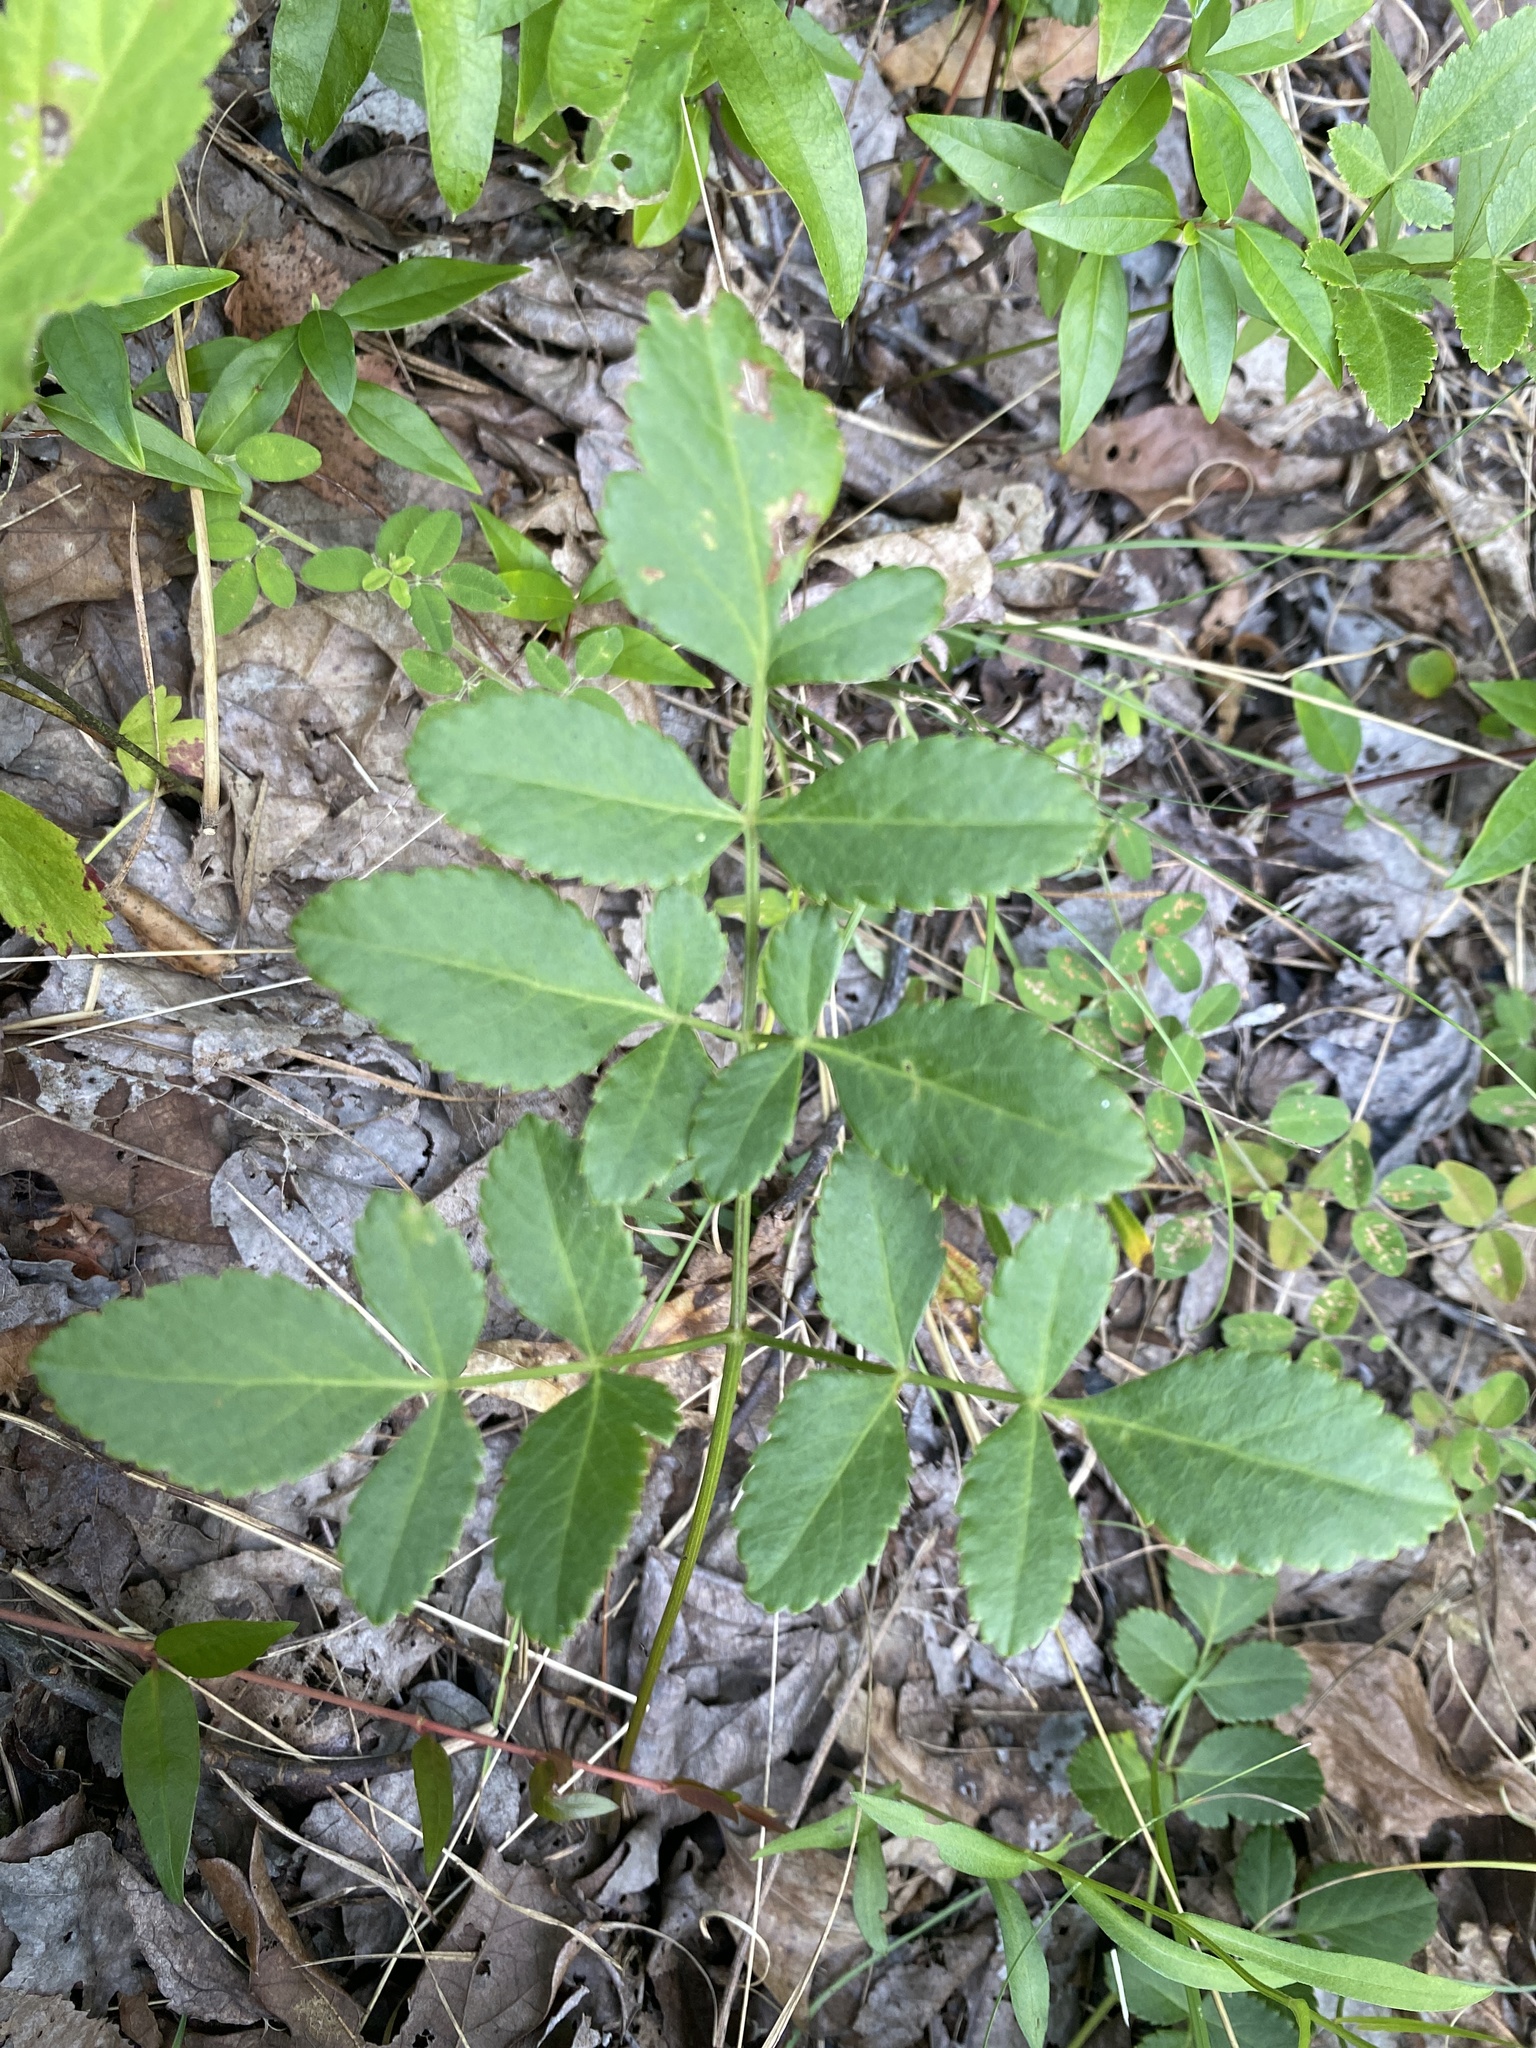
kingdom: Plantae
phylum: Tracheophyta
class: Magnoliopsida
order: Apiales
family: Apiaceae
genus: Angelica
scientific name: Angelica venenosa
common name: Hairy angelica
